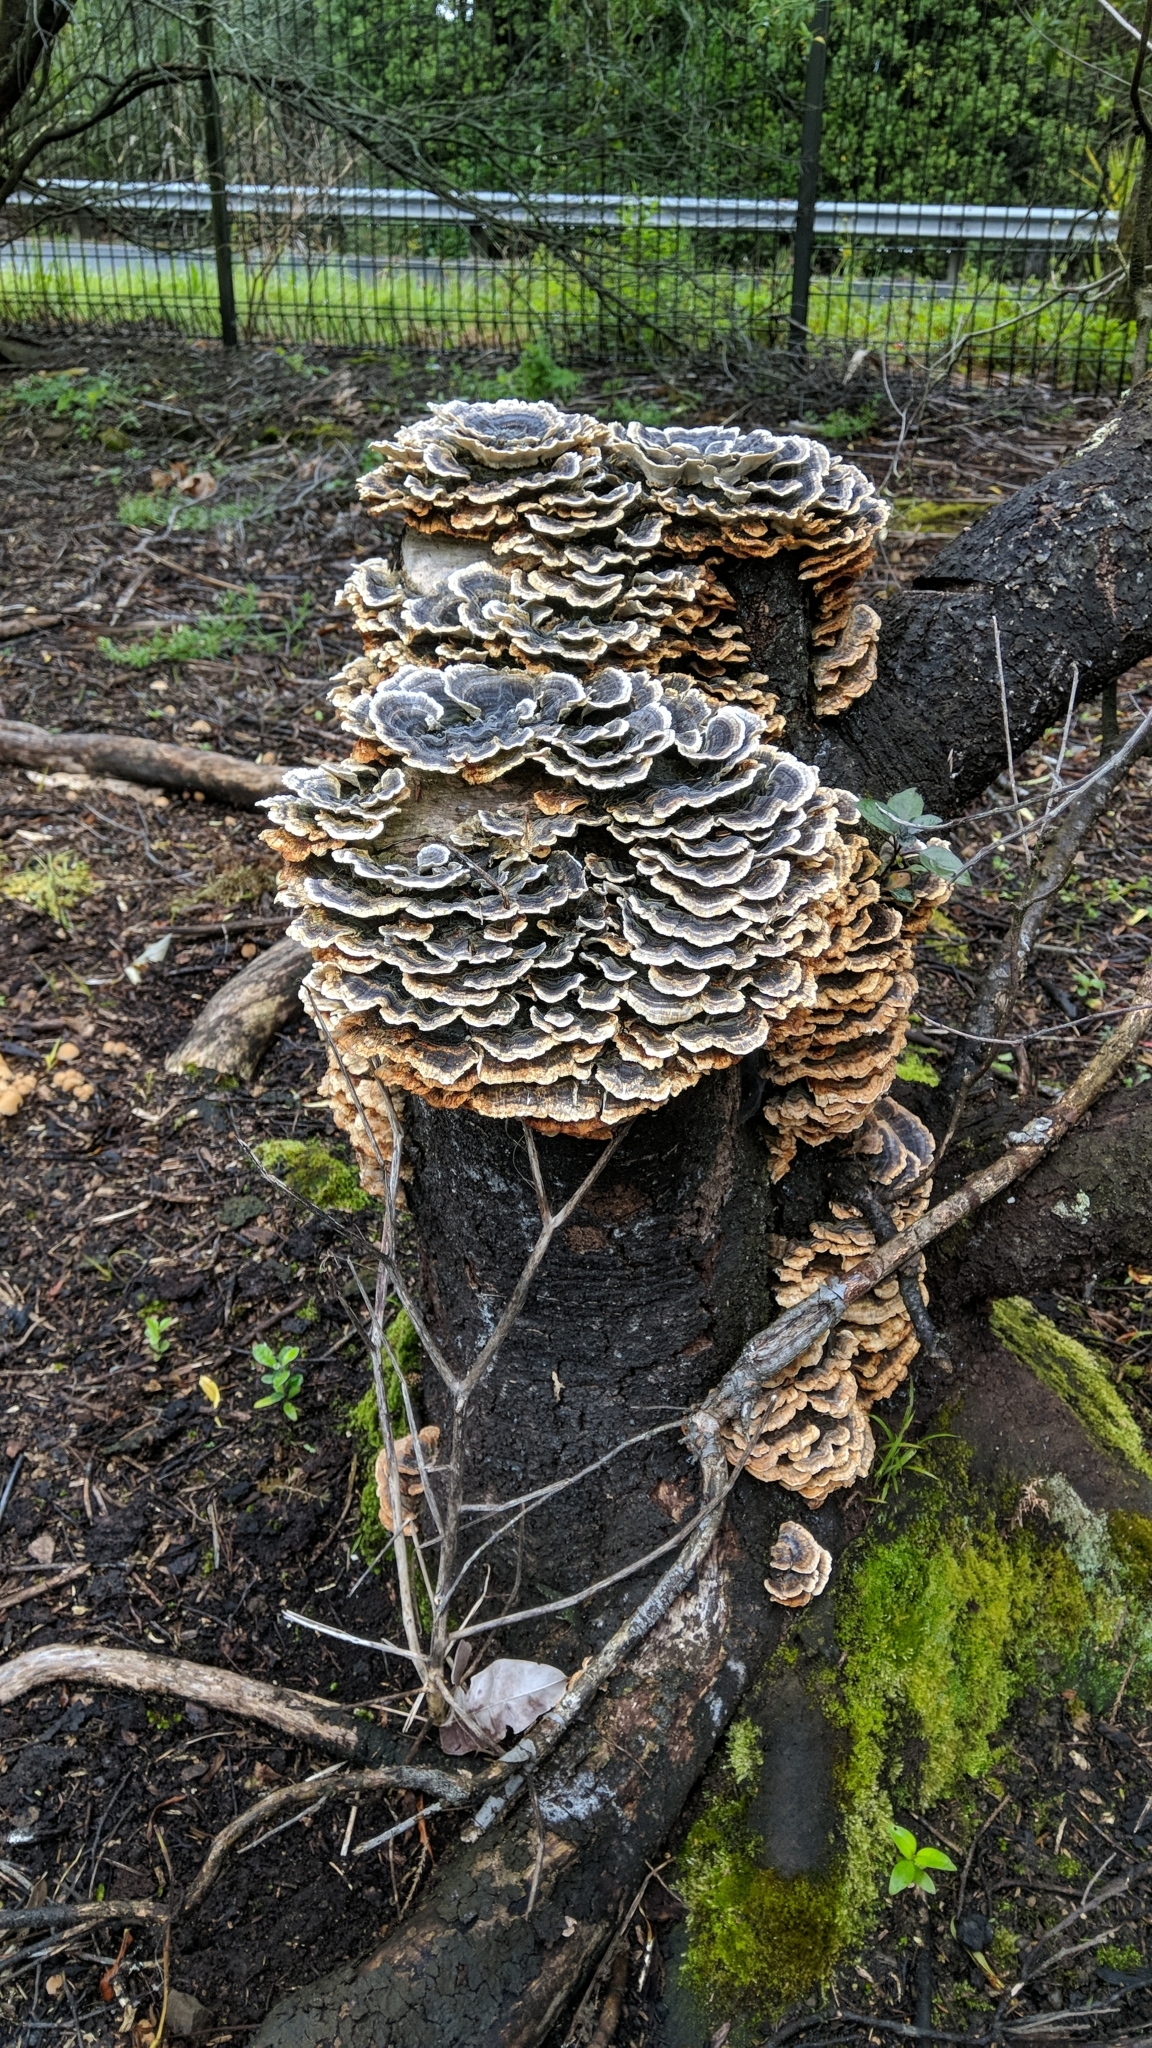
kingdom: Fungi
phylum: Basidiomycota
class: Agaricomycetes
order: Polyporales
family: Polyporaceae
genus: Trametes
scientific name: Trametes versicolor
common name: Turkeytail
